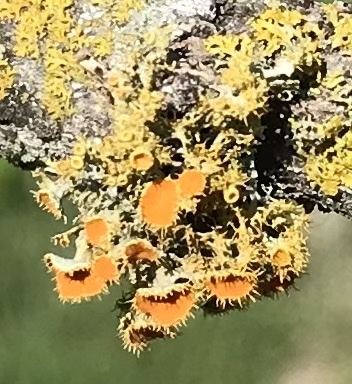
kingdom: Fungi
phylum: Ascomycota
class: Lecanoromycetes
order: Teloschistales
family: Teloschistaceae
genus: Niorma
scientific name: Niorma chrysophthalma
